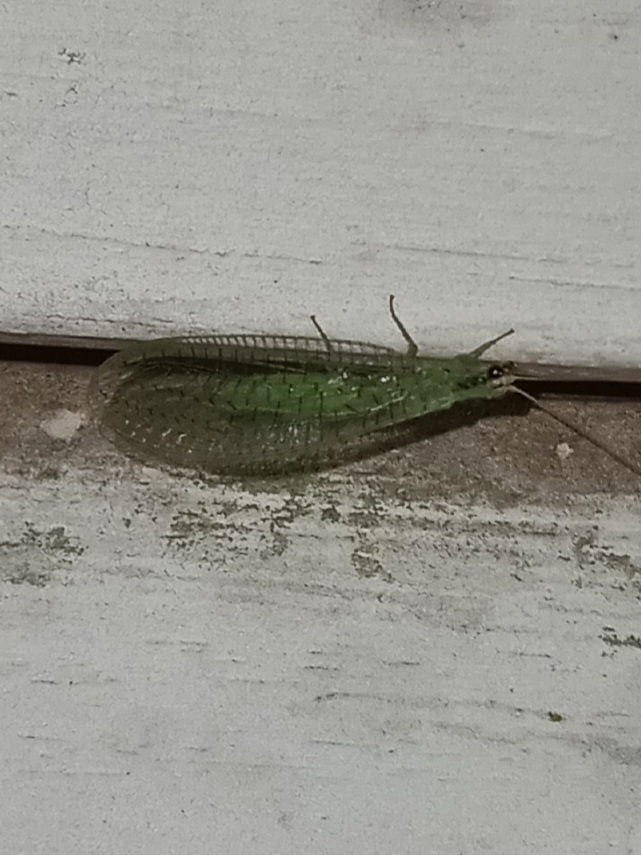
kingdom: Animalia
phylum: Arthropoda
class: Insecta
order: Neuroptera
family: Chrysopidae
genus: Chrysopa
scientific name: Chrysopa incompleta
